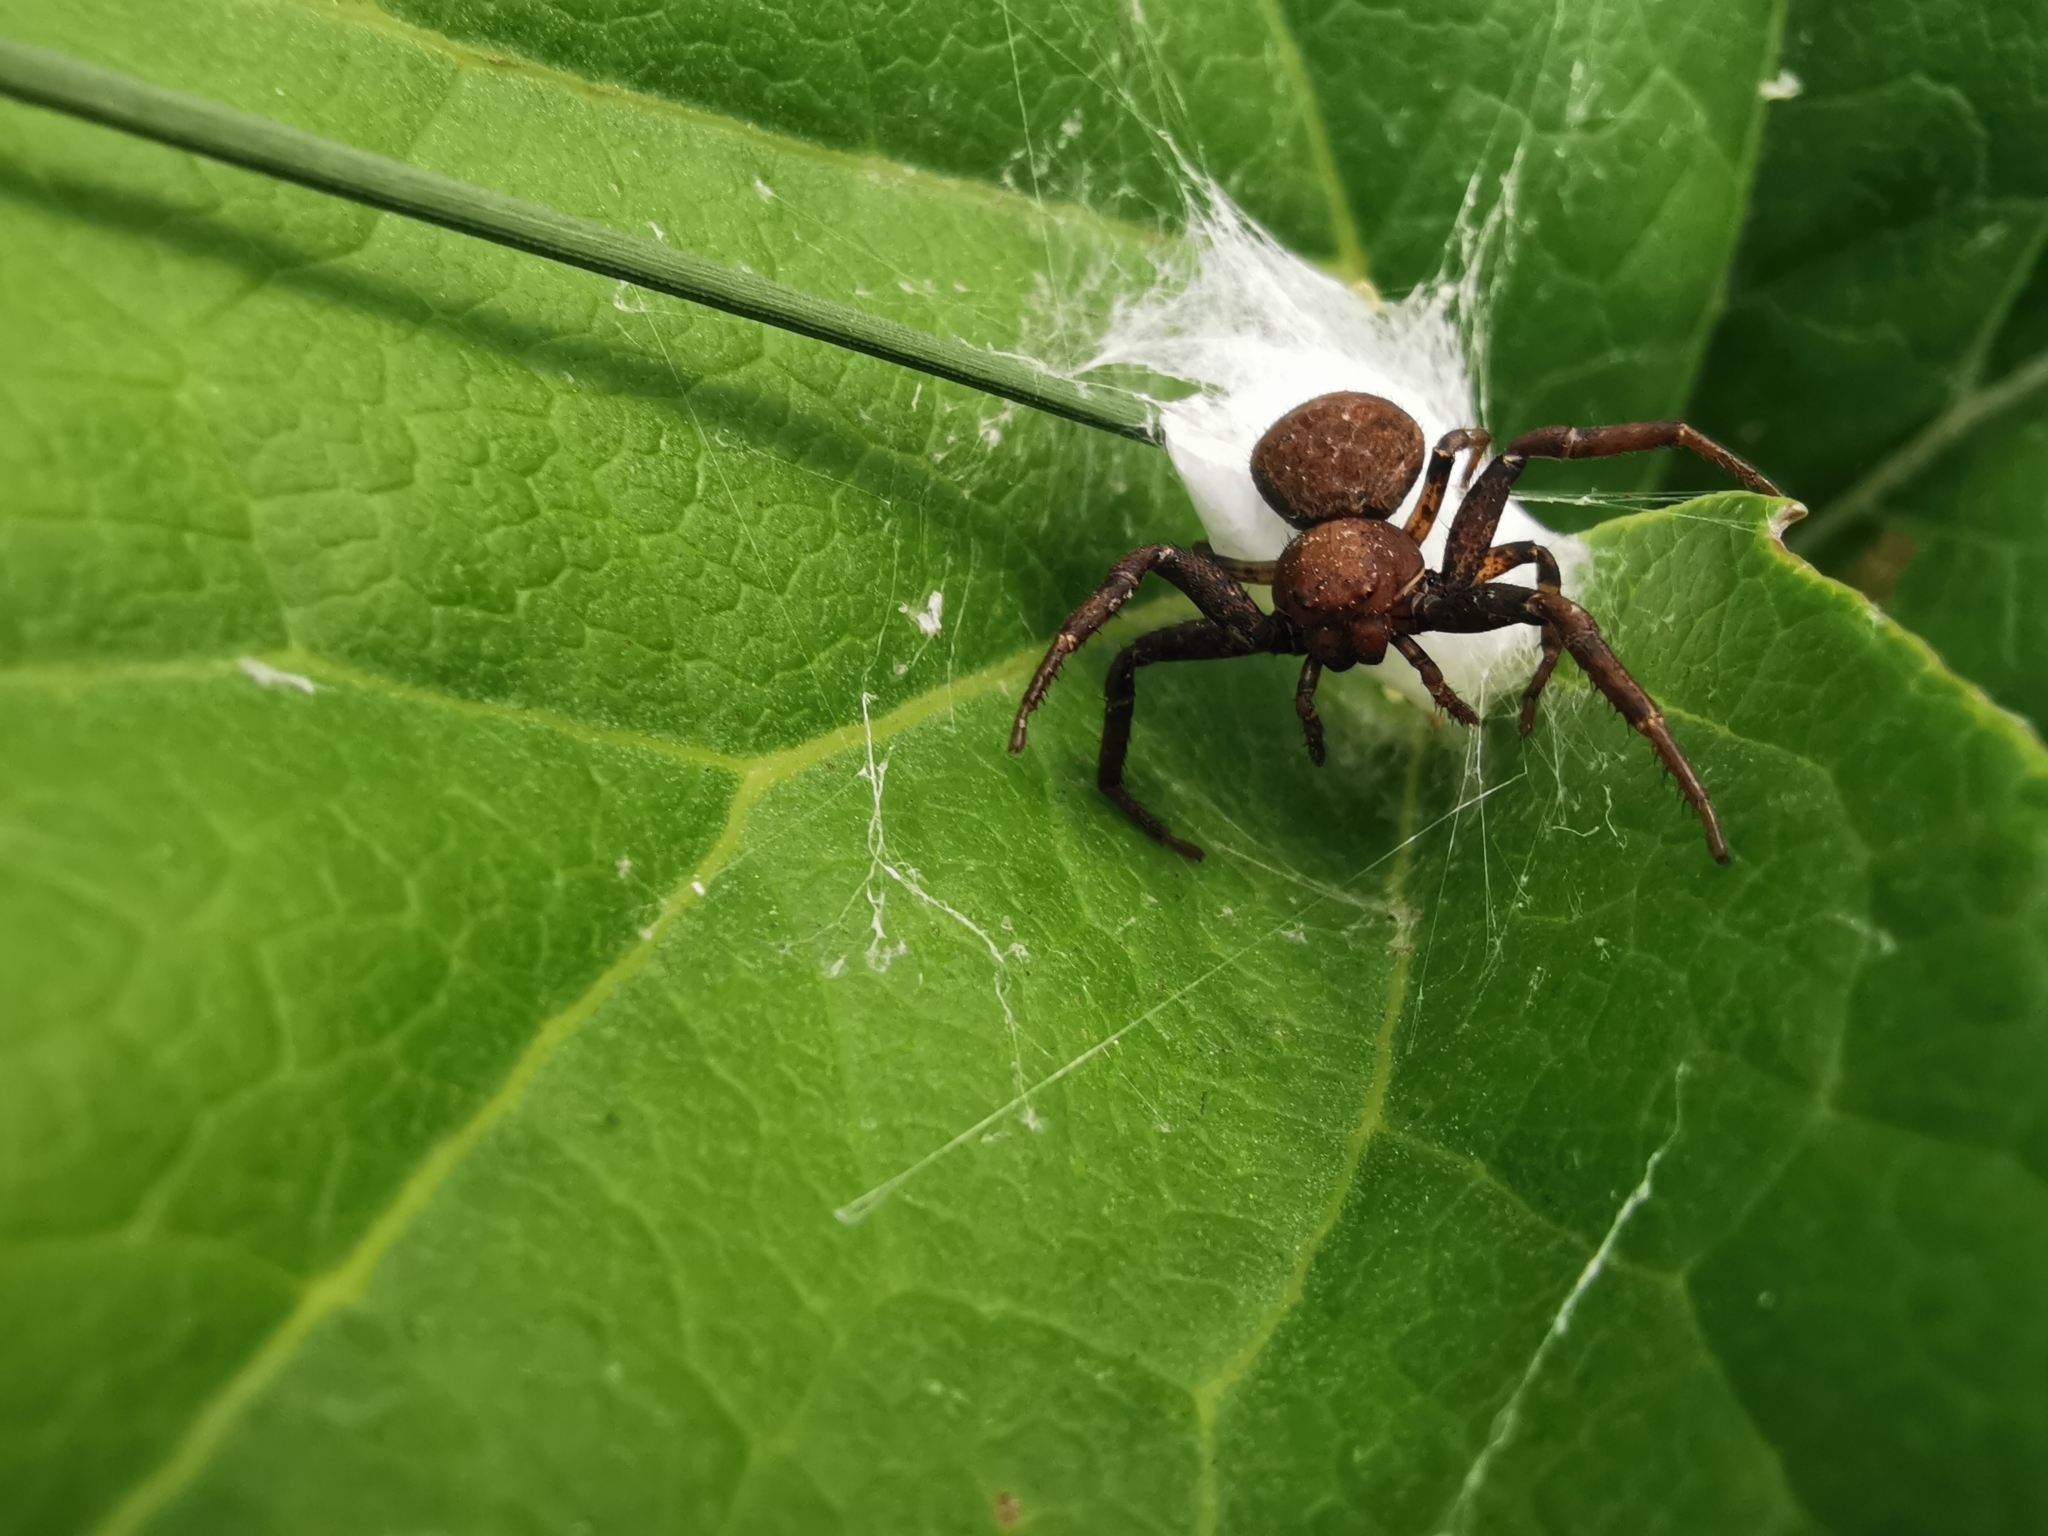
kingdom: Animalia
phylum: Arthropoda
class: Arachnida
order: Araneae
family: Thomisidae
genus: Xysticus
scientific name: Xysticus luctator
